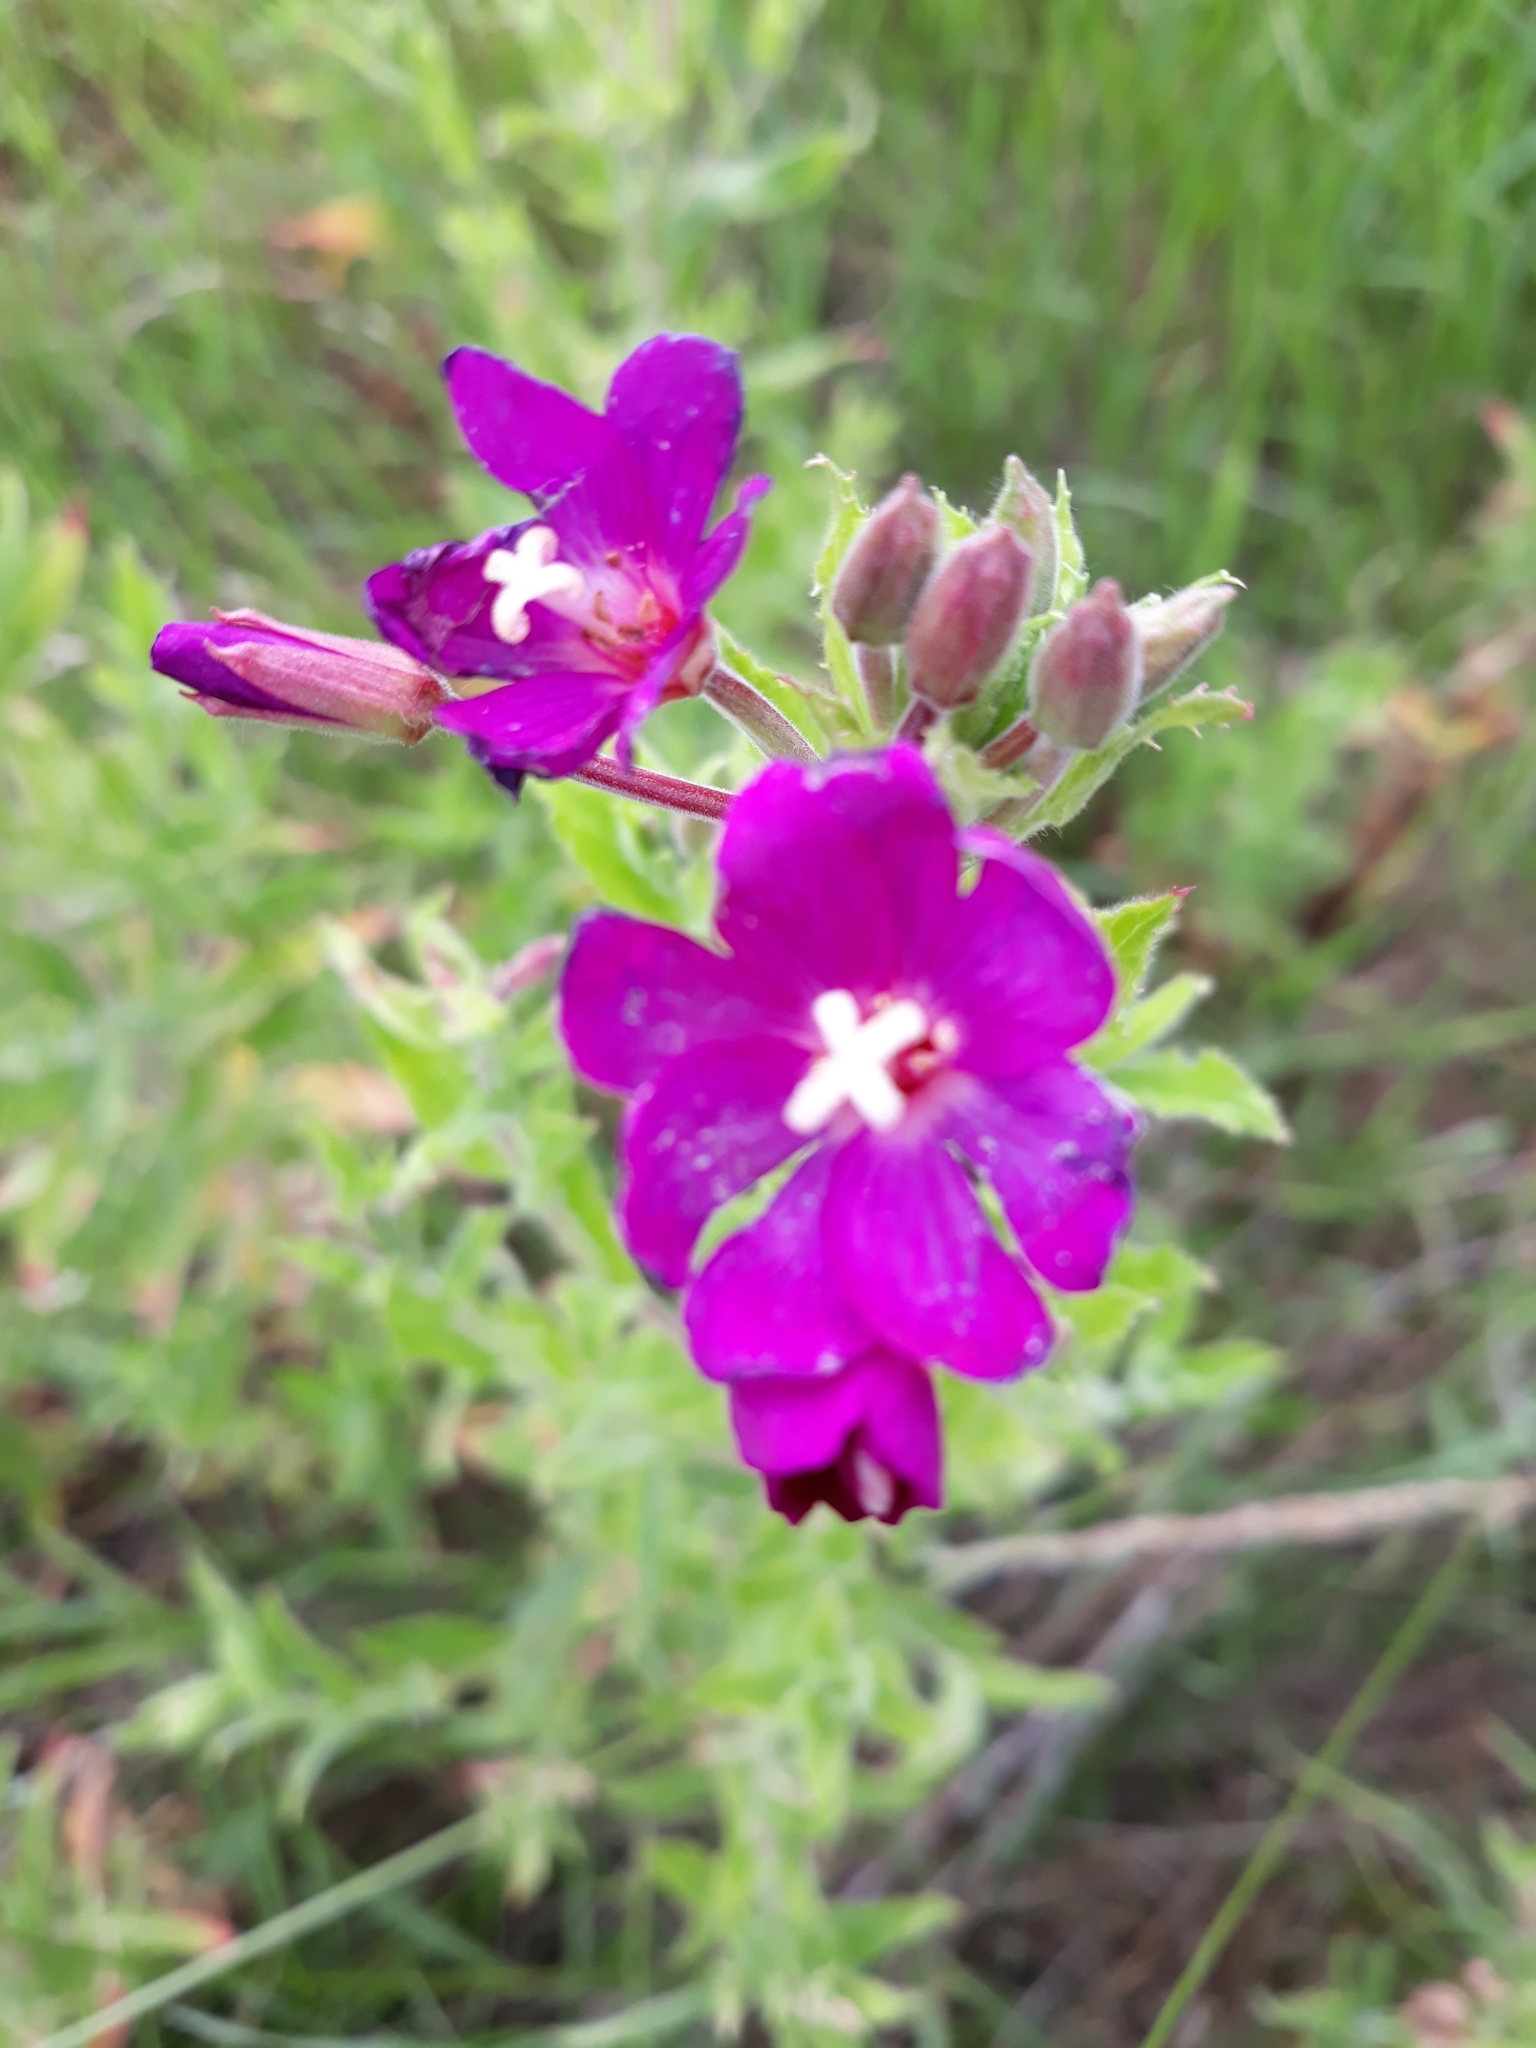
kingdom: Plantae
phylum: Tracheophyta
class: Magnoliopsida
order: Myrtales
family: Onagraceae
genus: Epilobium
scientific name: Epilobium hirsutum
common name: Great willowherb
